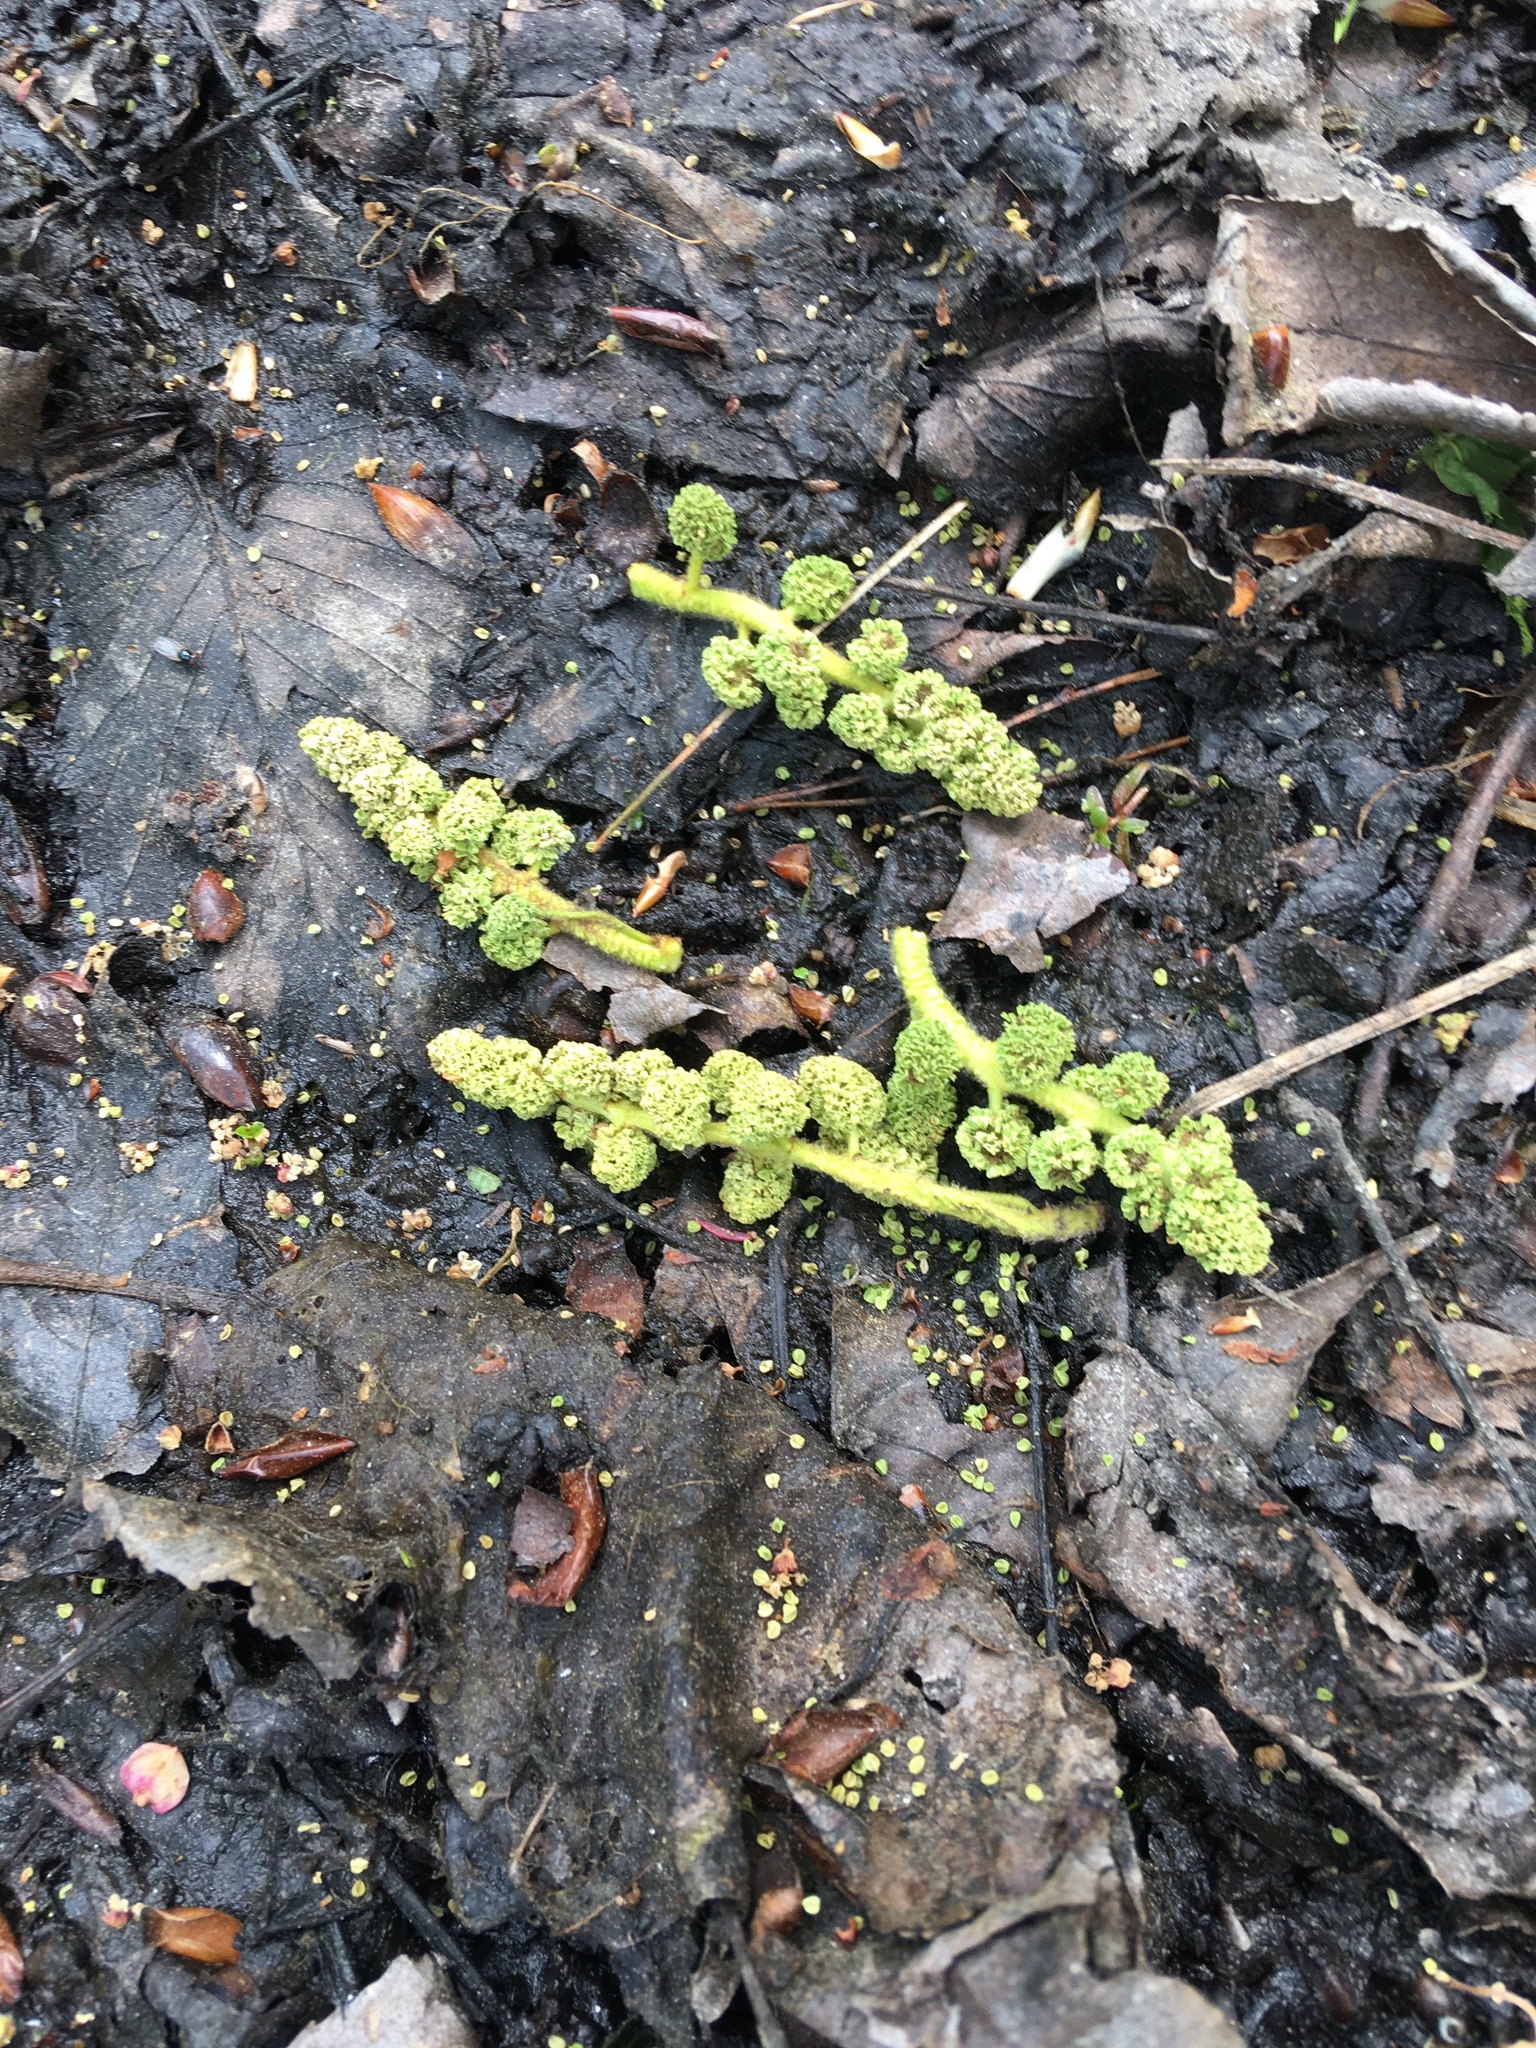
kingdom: Plantae
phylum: Tracheophyta
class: Magnoliopsida
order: Saxifragales
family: Altingiaceae
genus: Liquidambar
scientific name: Liquidambar styraciflua
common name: Sweet gum
